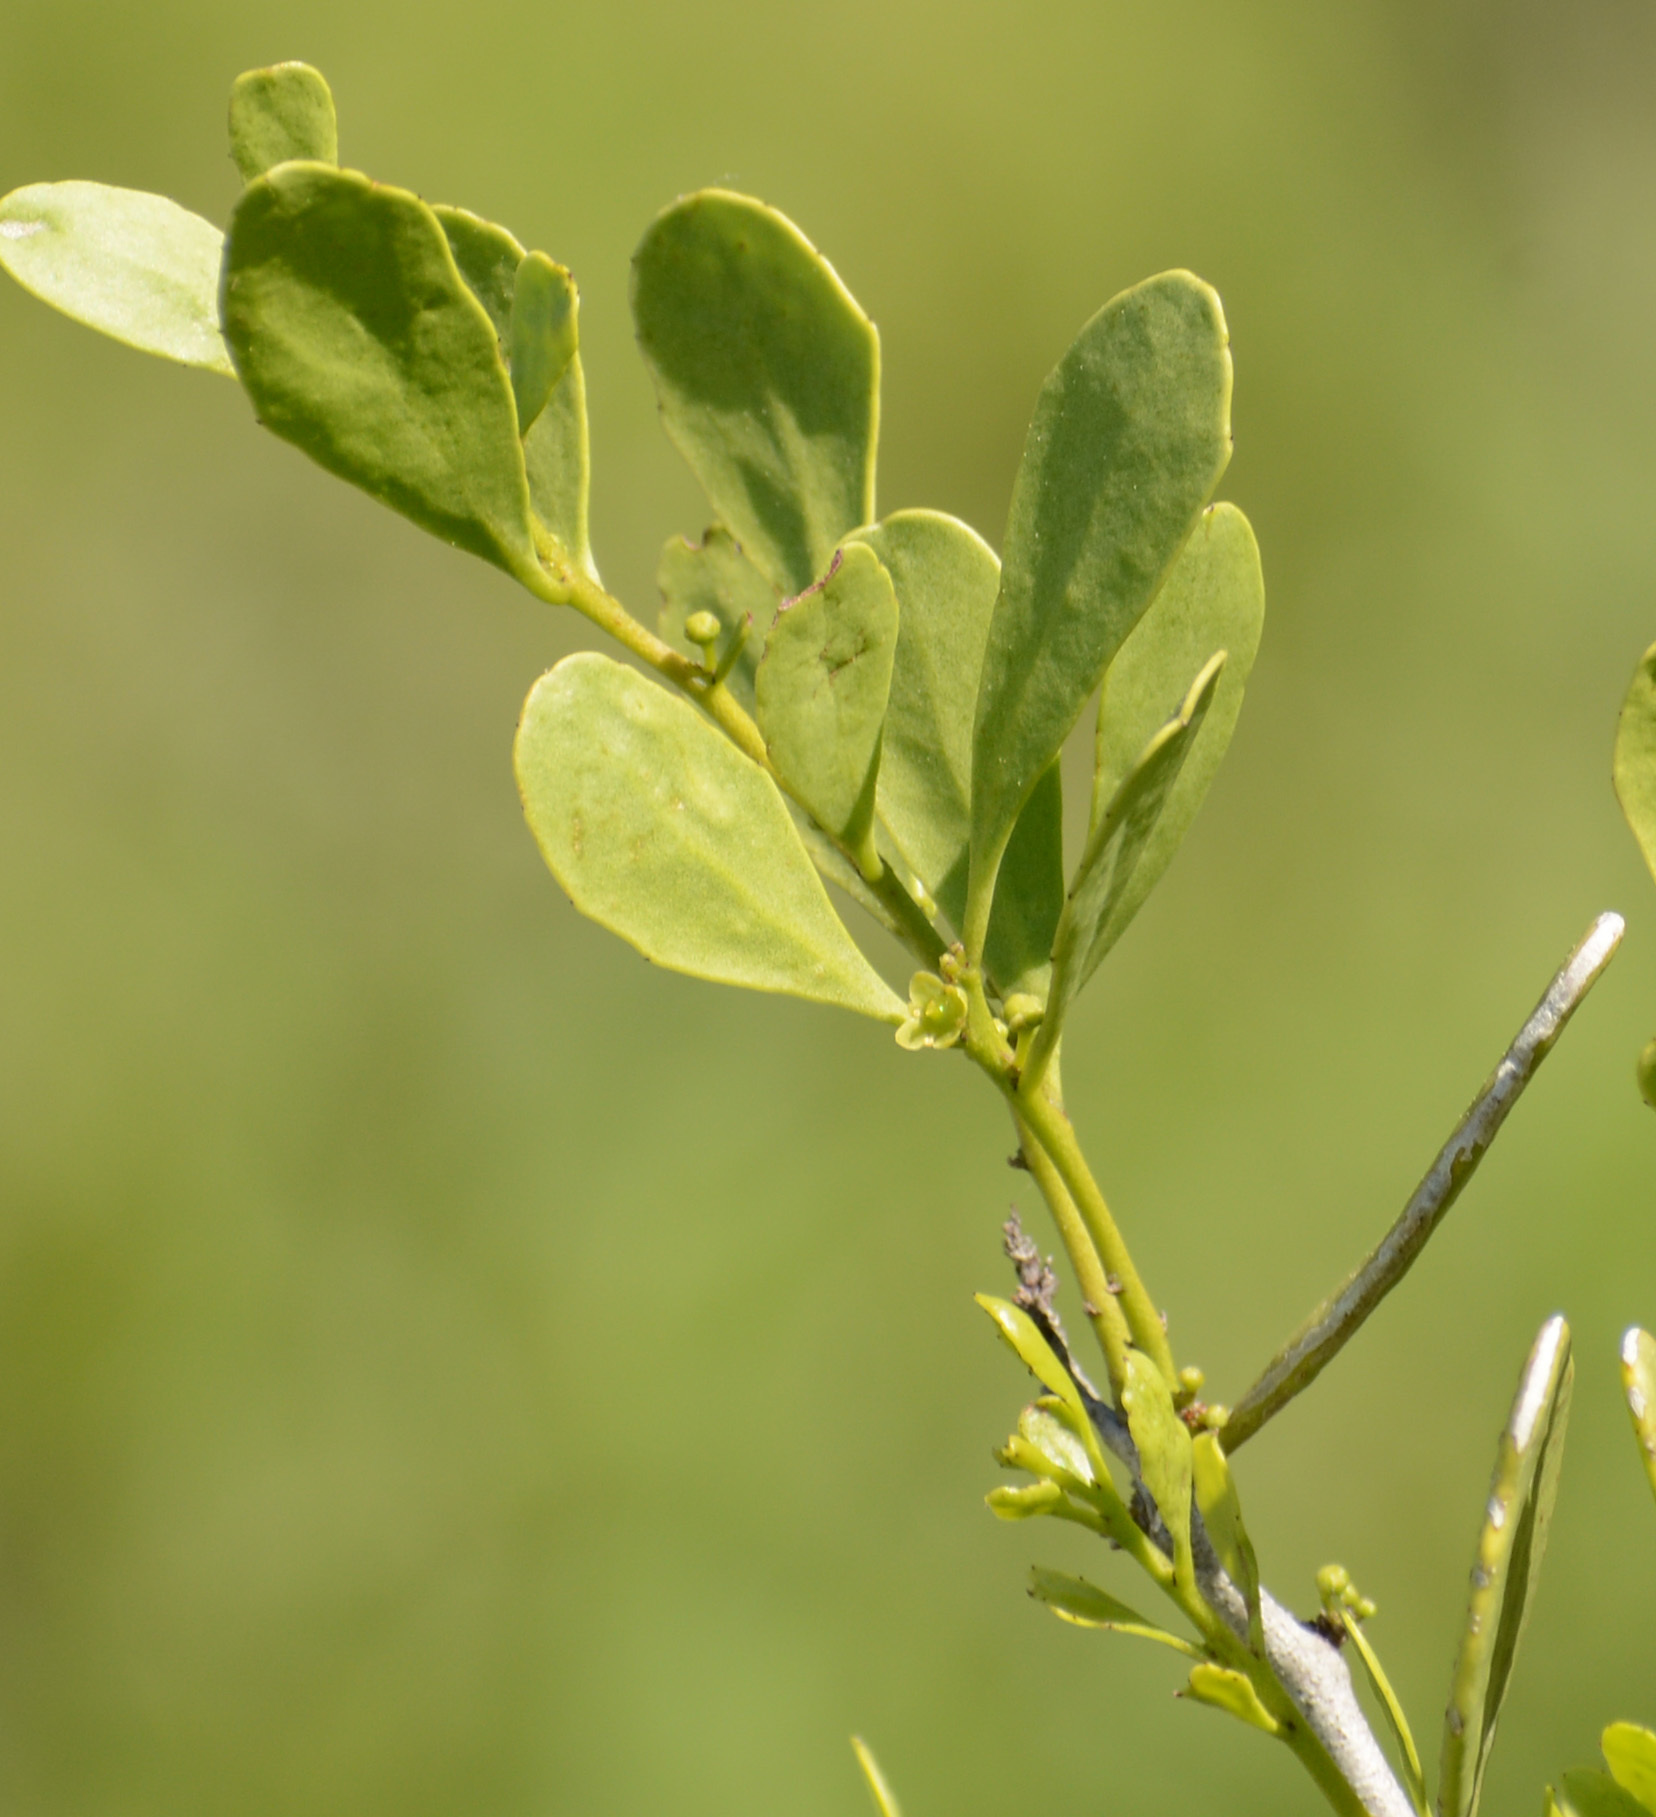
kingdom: Plantae
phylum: Tracheophyta
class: Magnoliopsida
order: Celastrales
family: Celastraceae
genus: Tricerma
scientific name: Tricerma phyllanthoides
